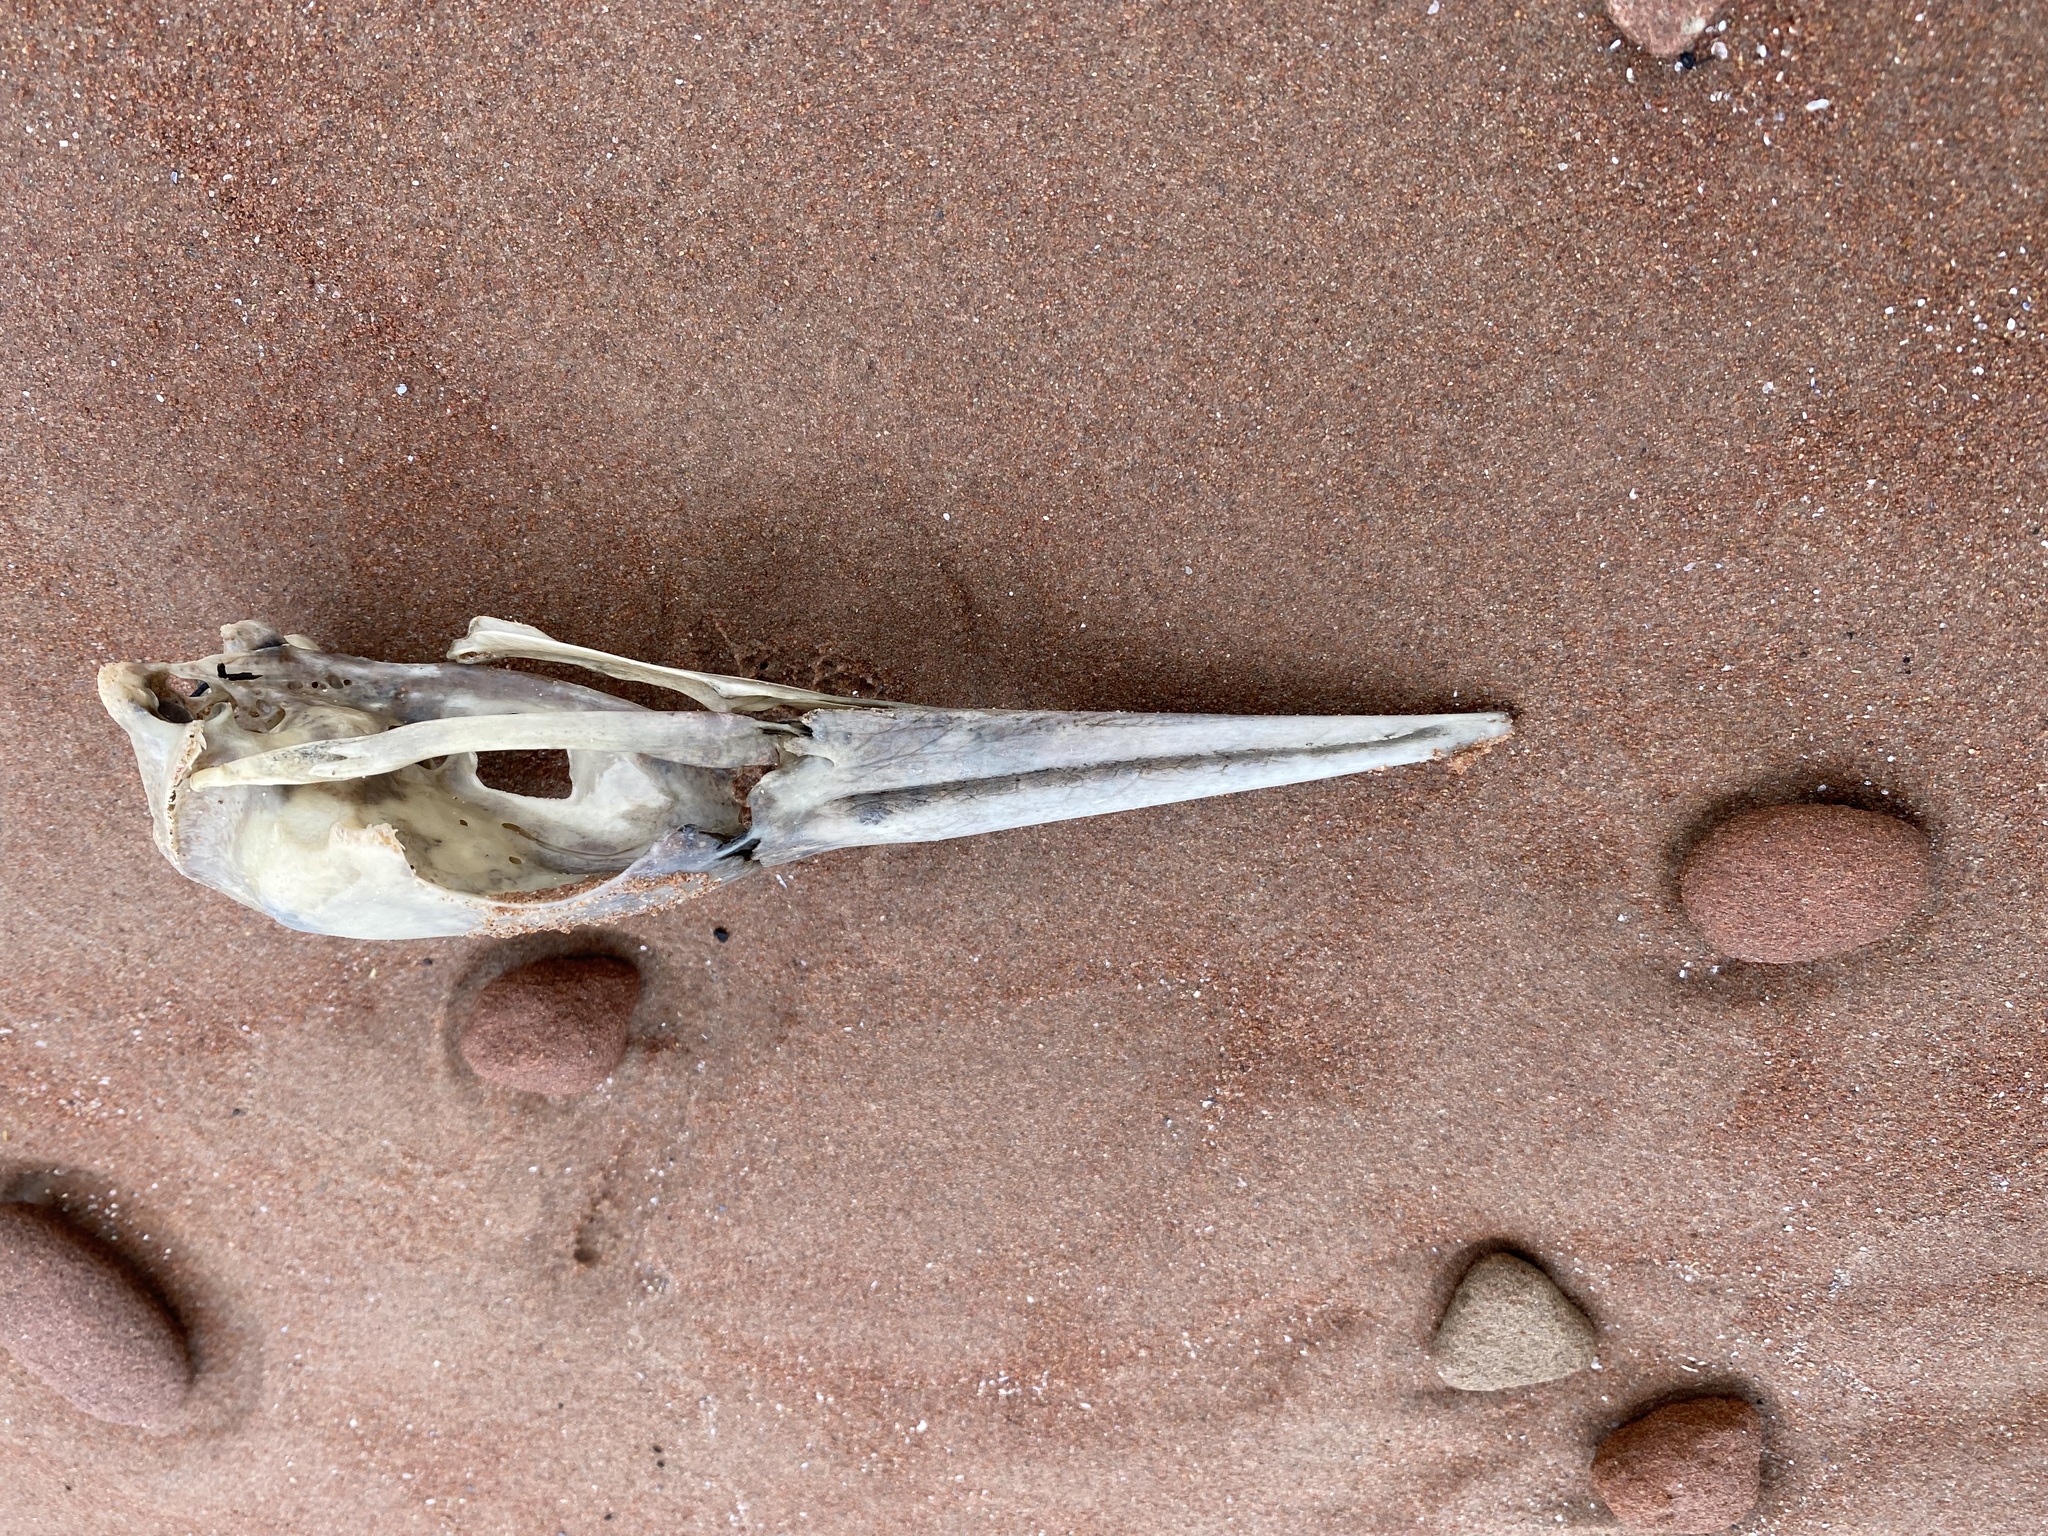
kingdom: Animalia
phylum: Chordata
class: Aves
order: Suliformes
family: Sulidae
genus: Morus
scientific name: Morus bassanus
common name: Northern gannet
